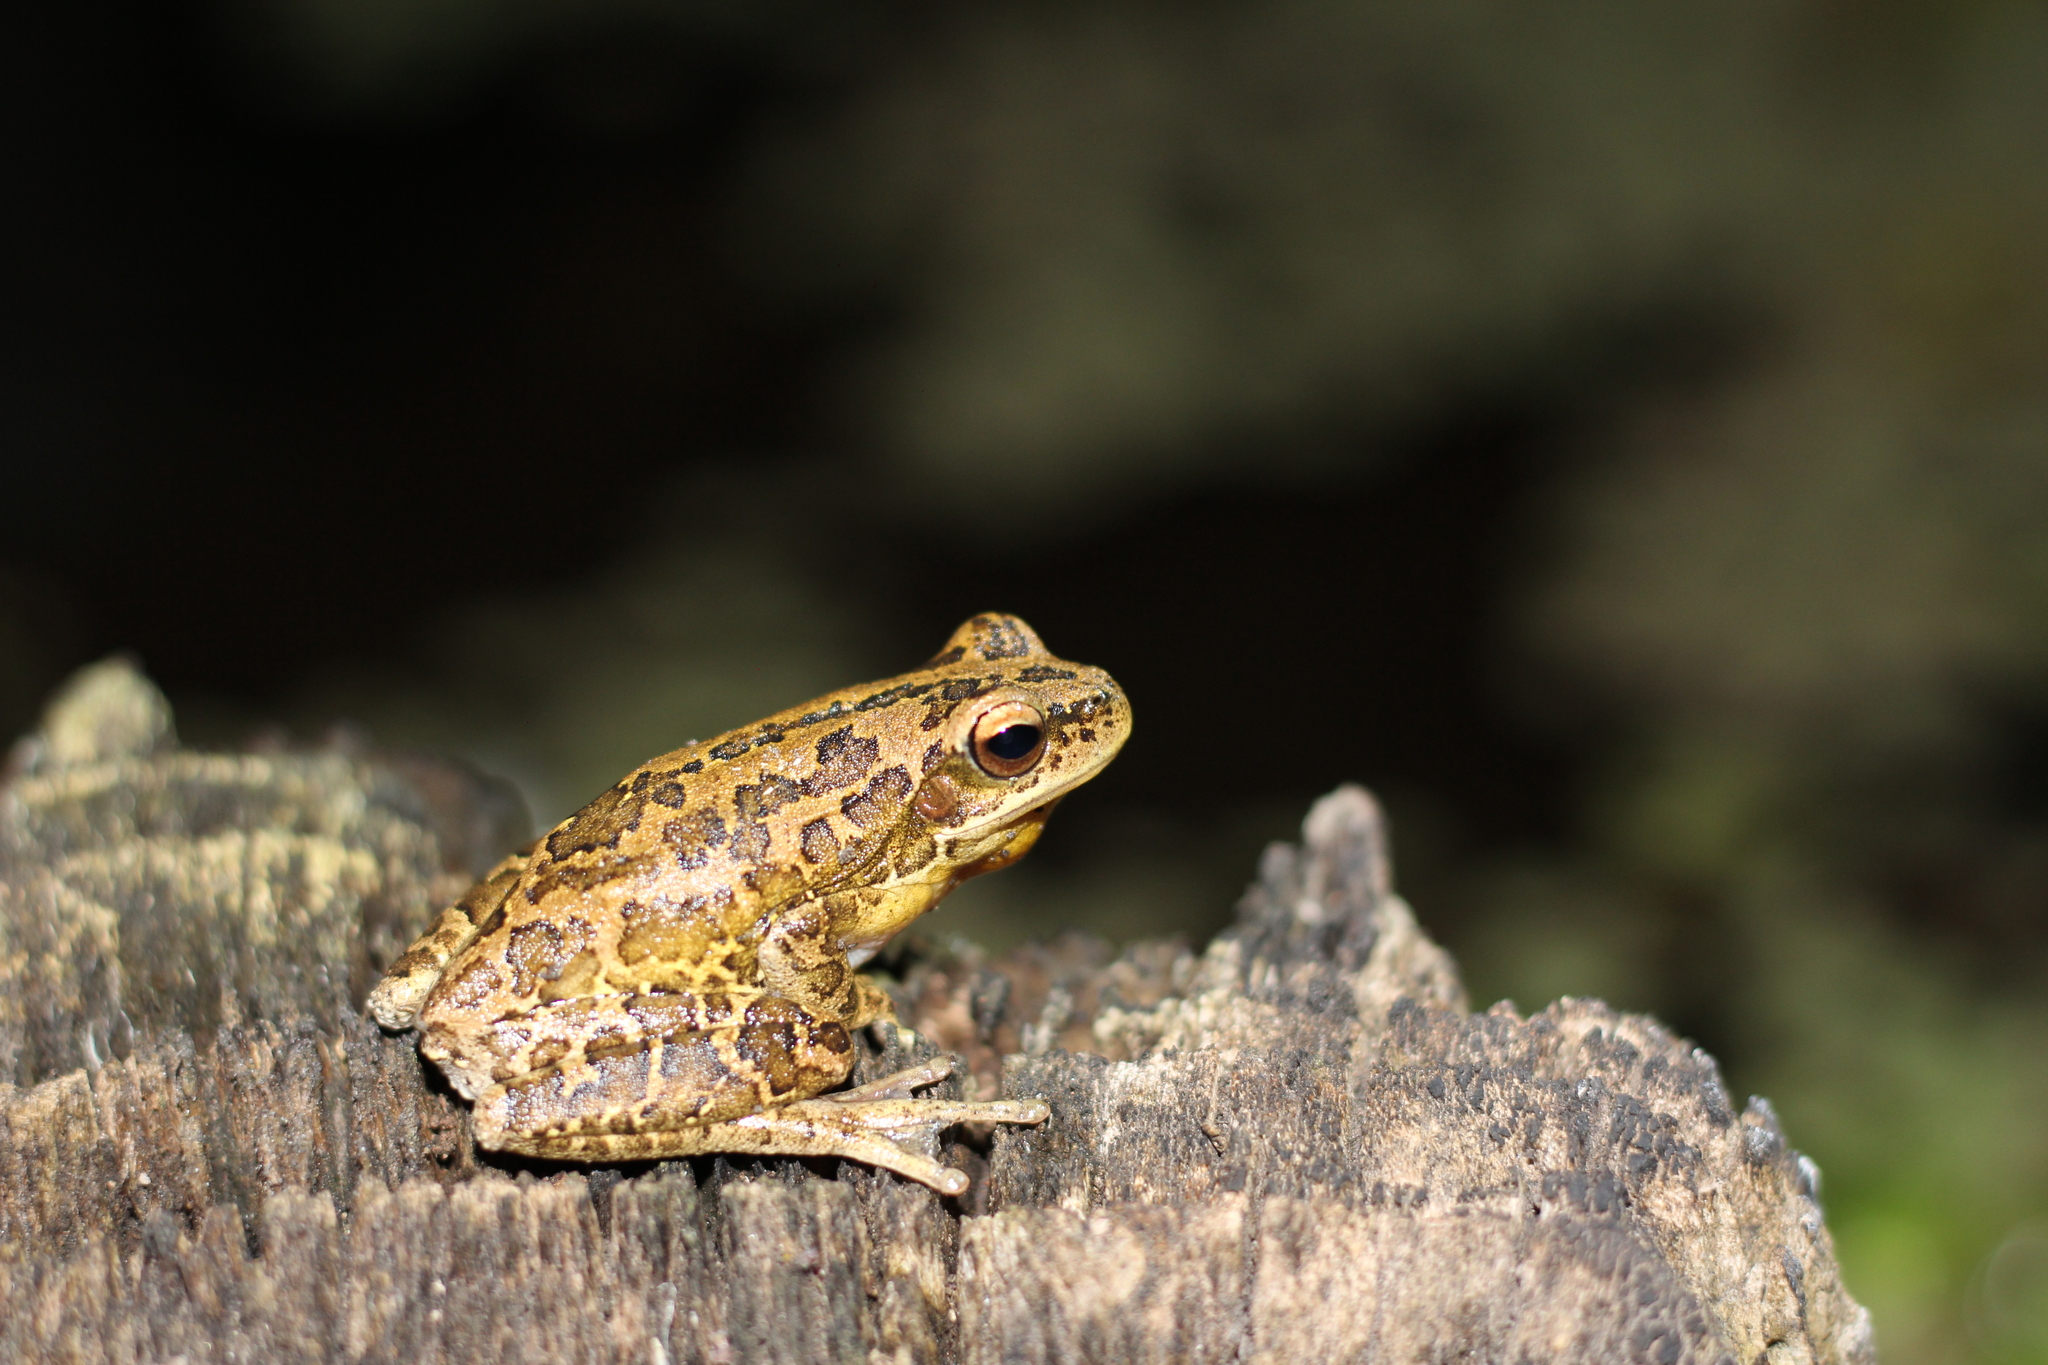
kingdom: Animalia
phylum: Chordata
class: Amphibia
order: Anura
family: Hylidae
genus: Boana
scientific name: Boana pulchella
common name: Montevideo treefrog
